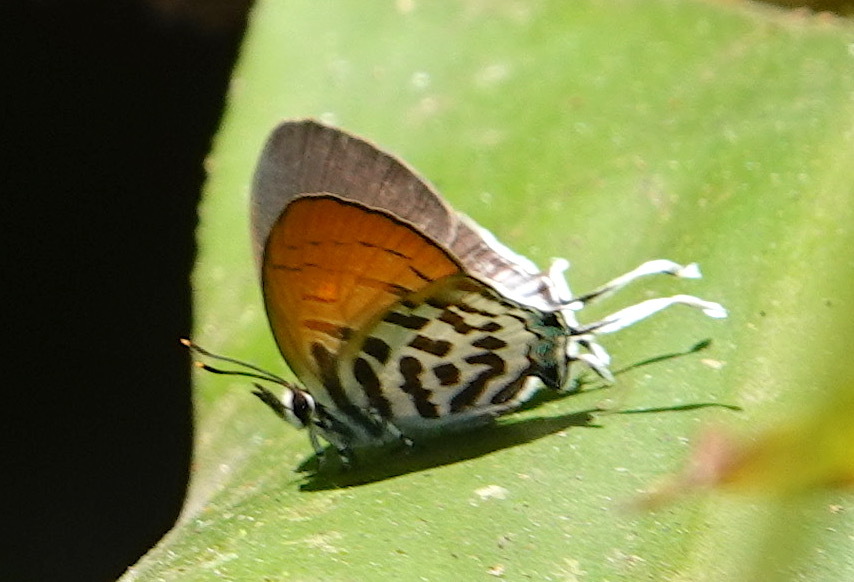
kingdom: Animalia
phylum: Arthropoda
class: Insecta
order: Lepidoptera
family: Lycaenidae
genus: Drupadia
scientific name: Drupadia ravindra
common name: Common posy
